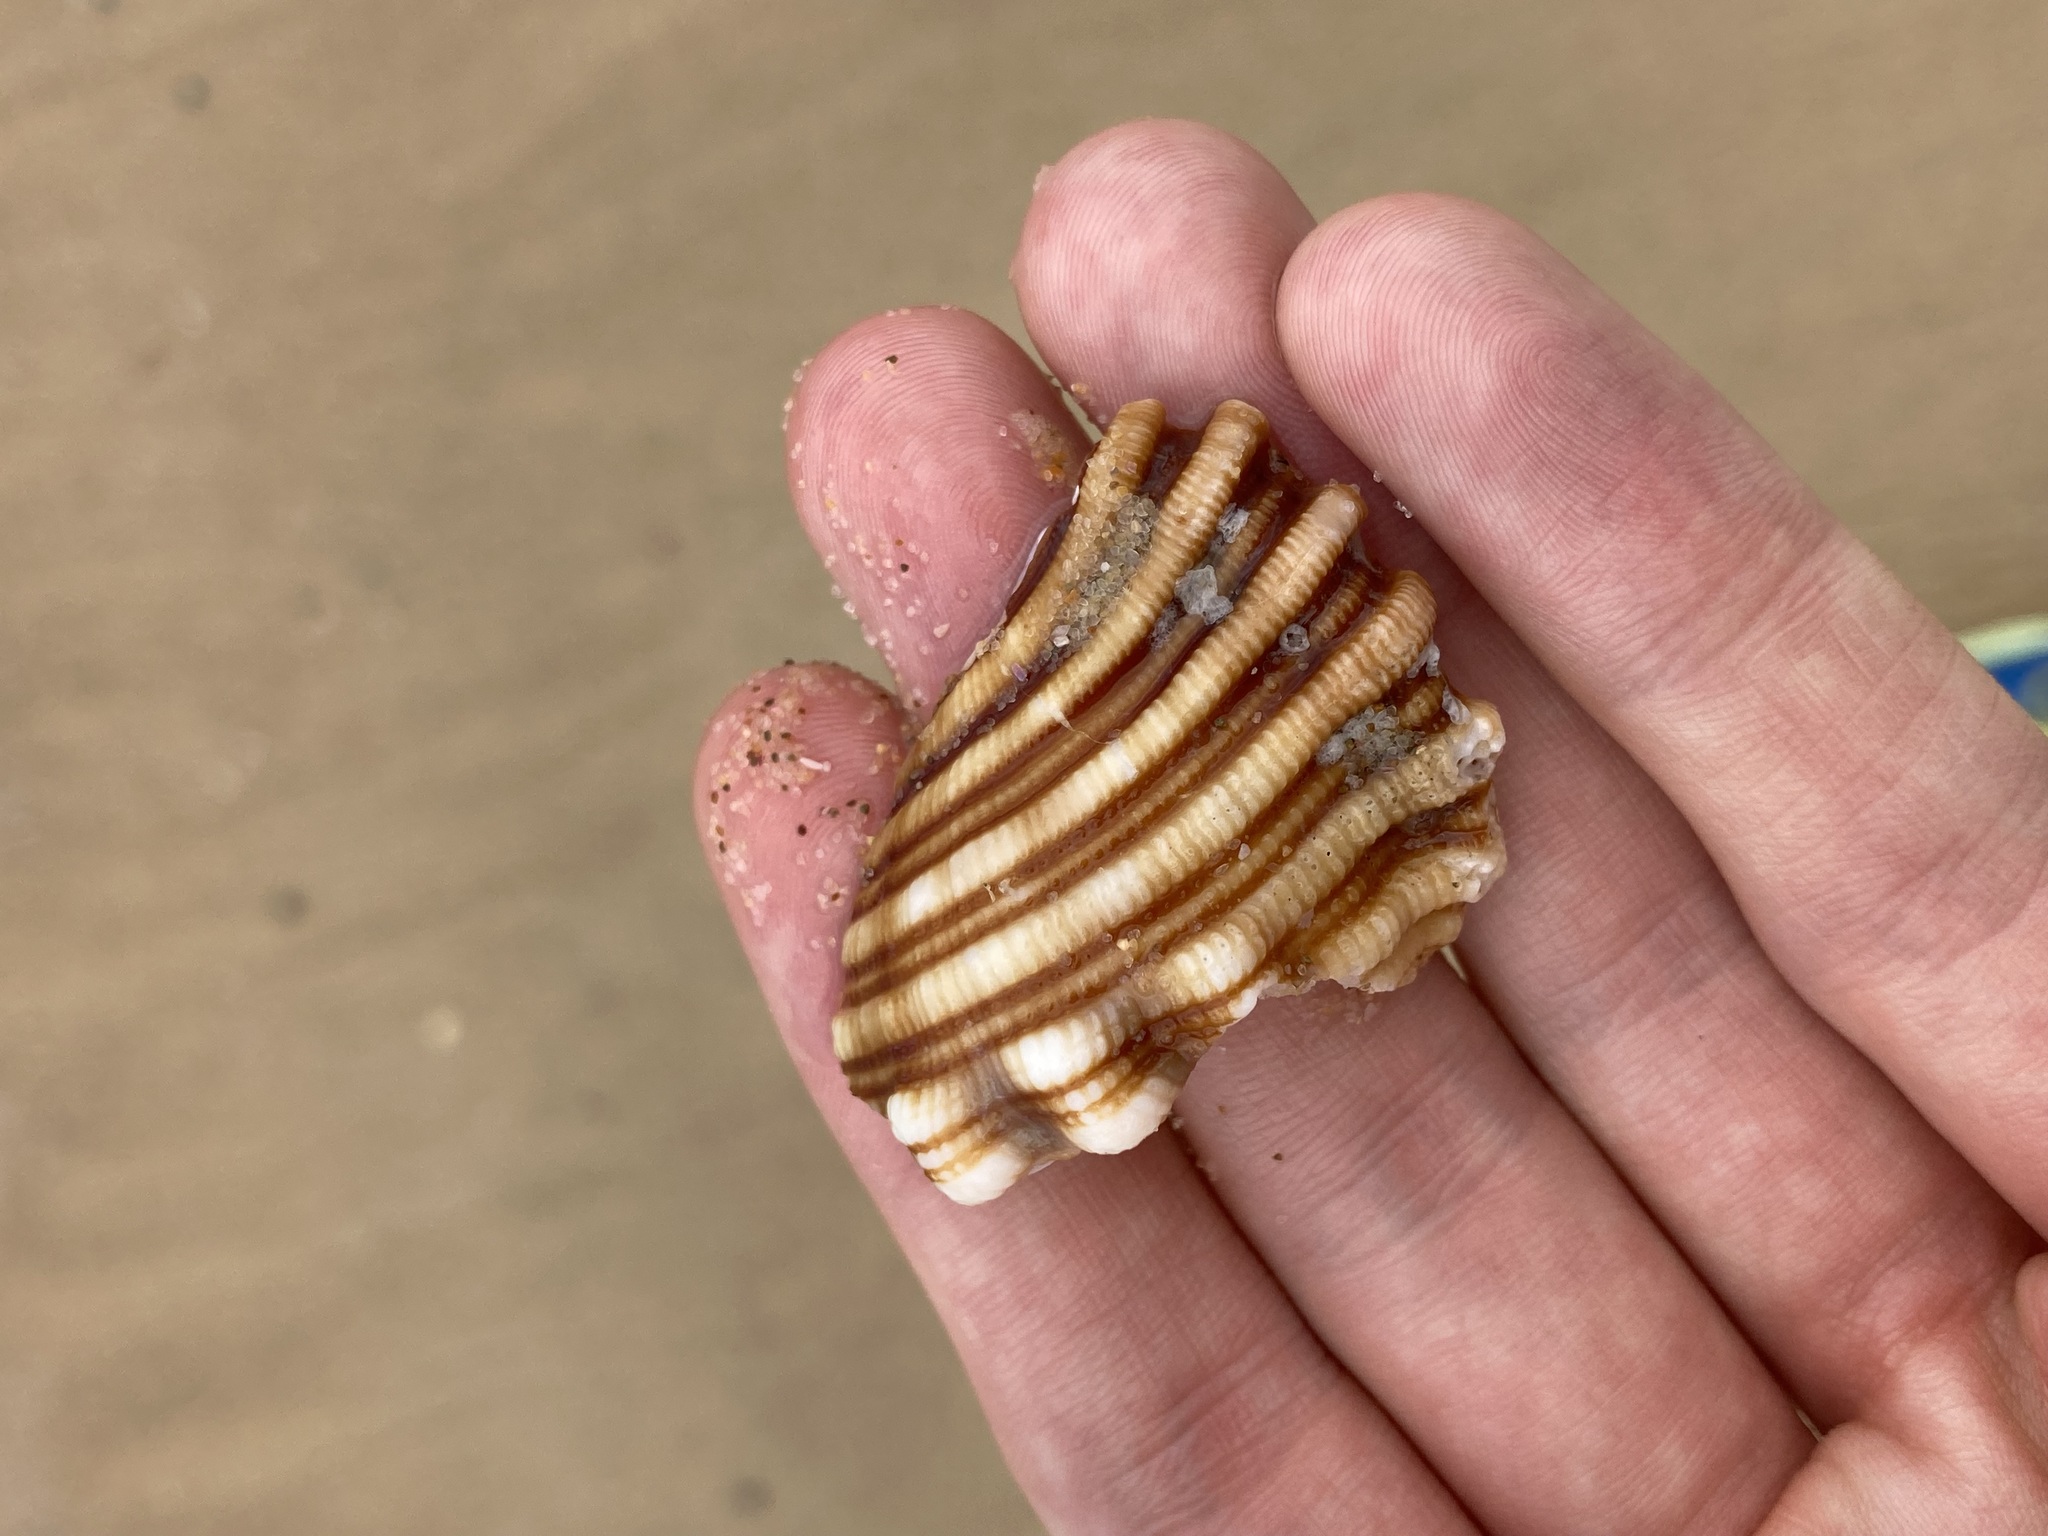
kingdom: Animalia
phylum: Mollusca
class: Gastropoda
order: Littorinimorpha
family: Cymatiidae
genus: Cabestana
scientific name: Cabestana spengleri
